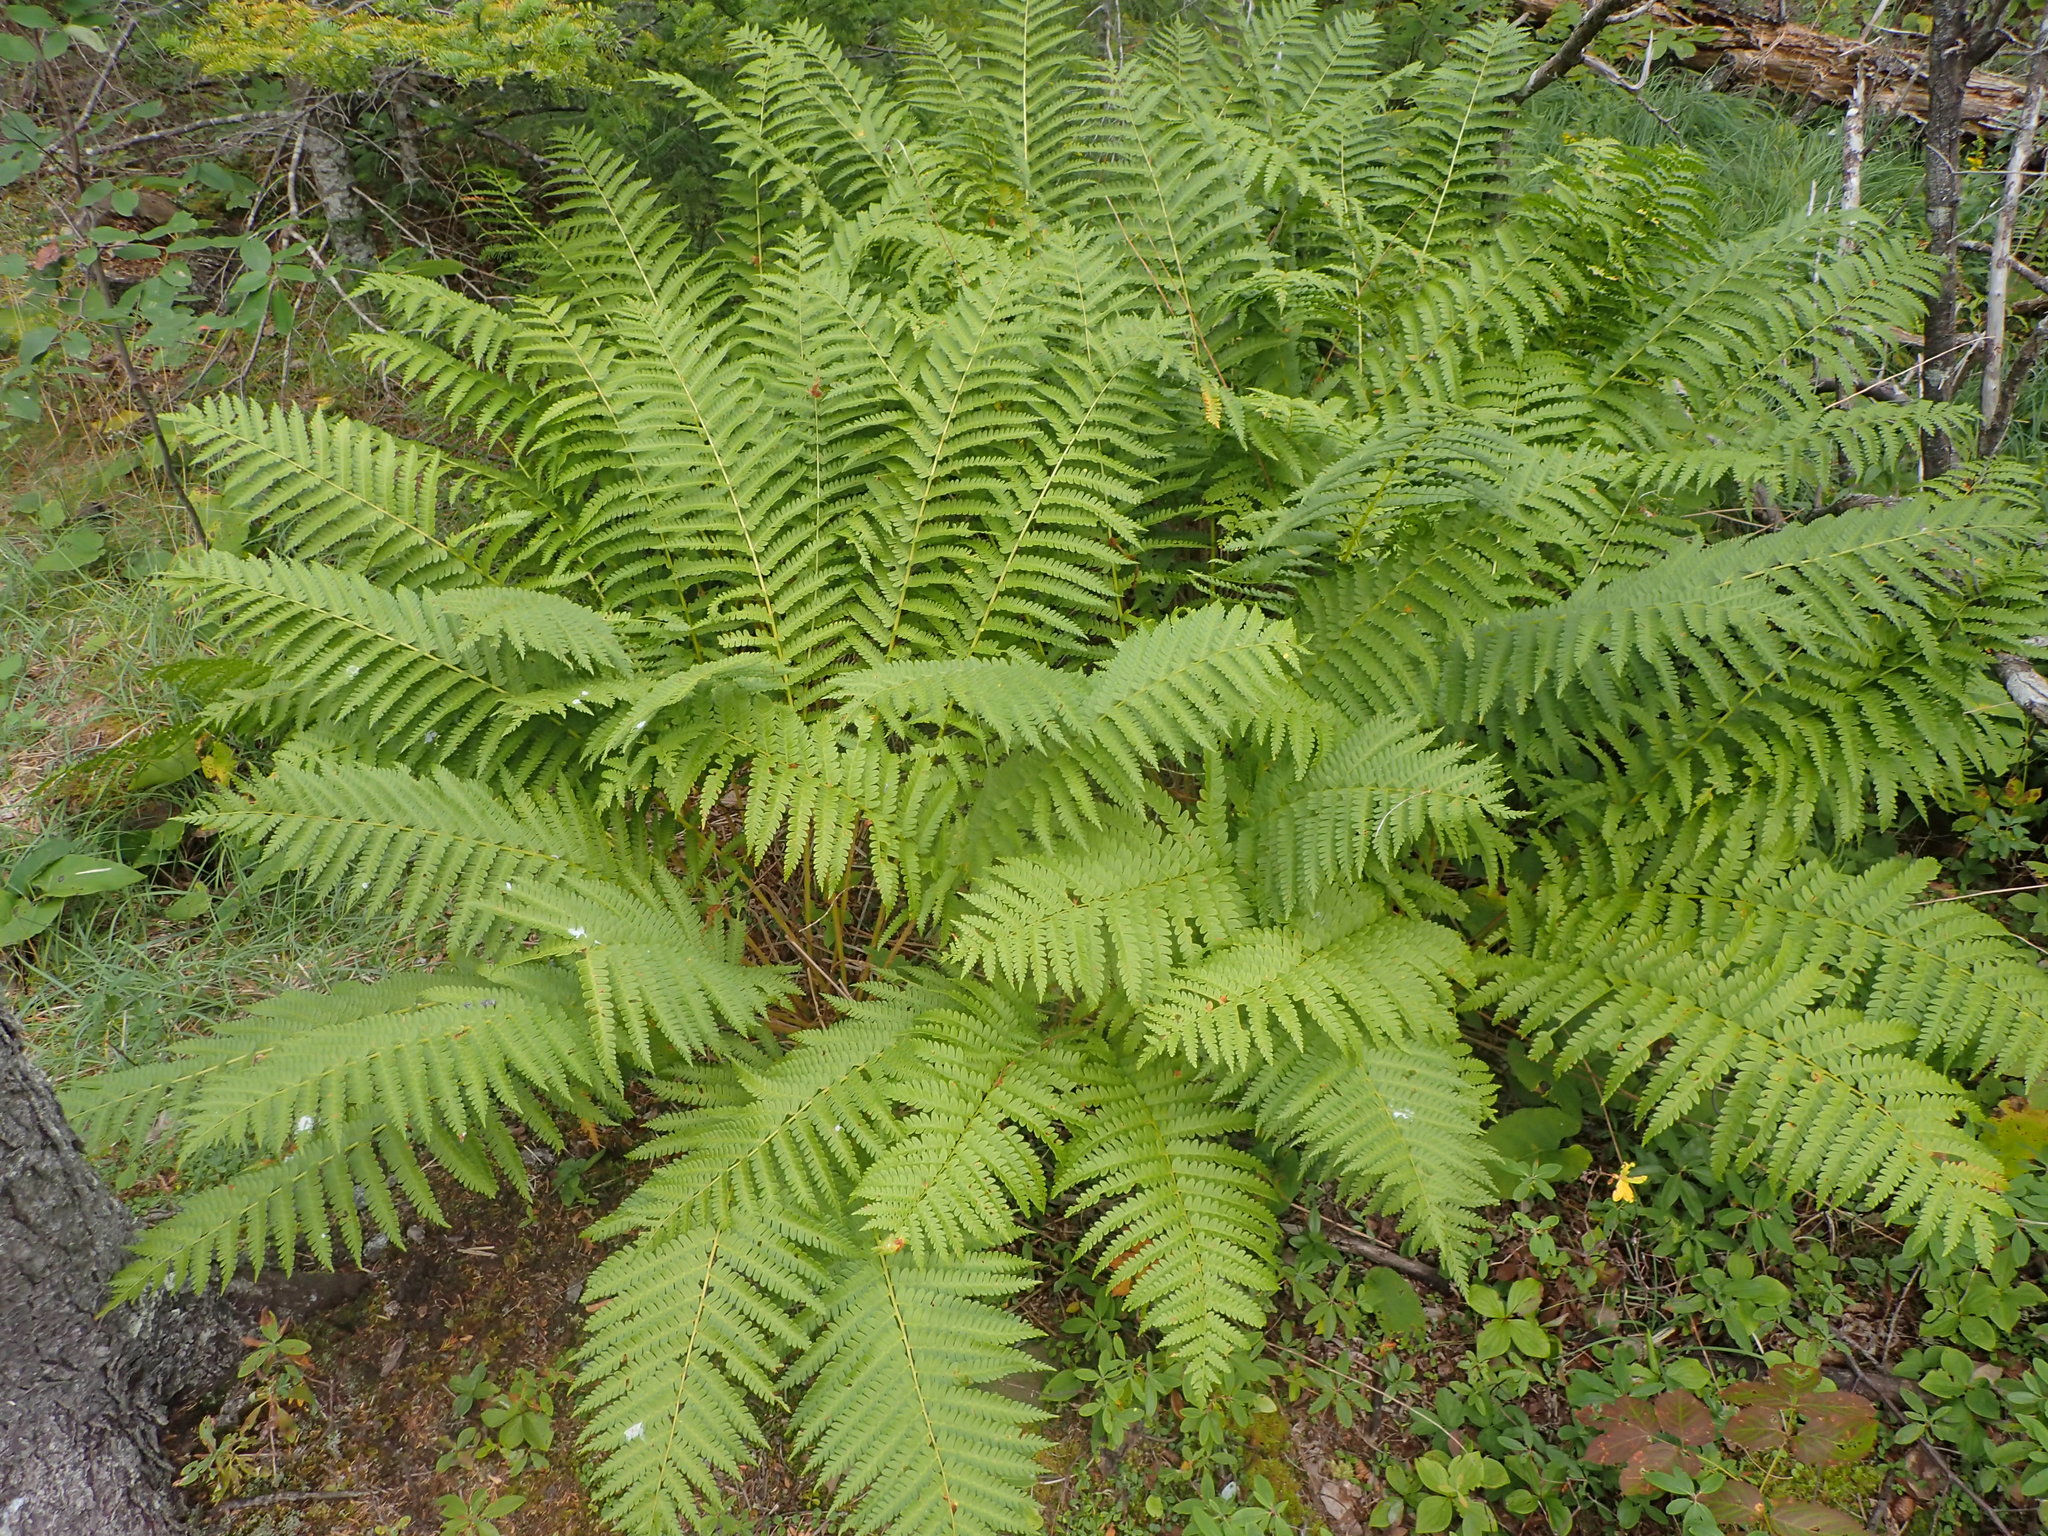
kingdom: Plantae
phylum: Tracheophyta
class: Polypodiopsida
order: Osmundales
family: Osmundaceae
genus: Osmundastrum
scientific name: Osmundastrum cinnamomeum
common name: Cinnamon fern
